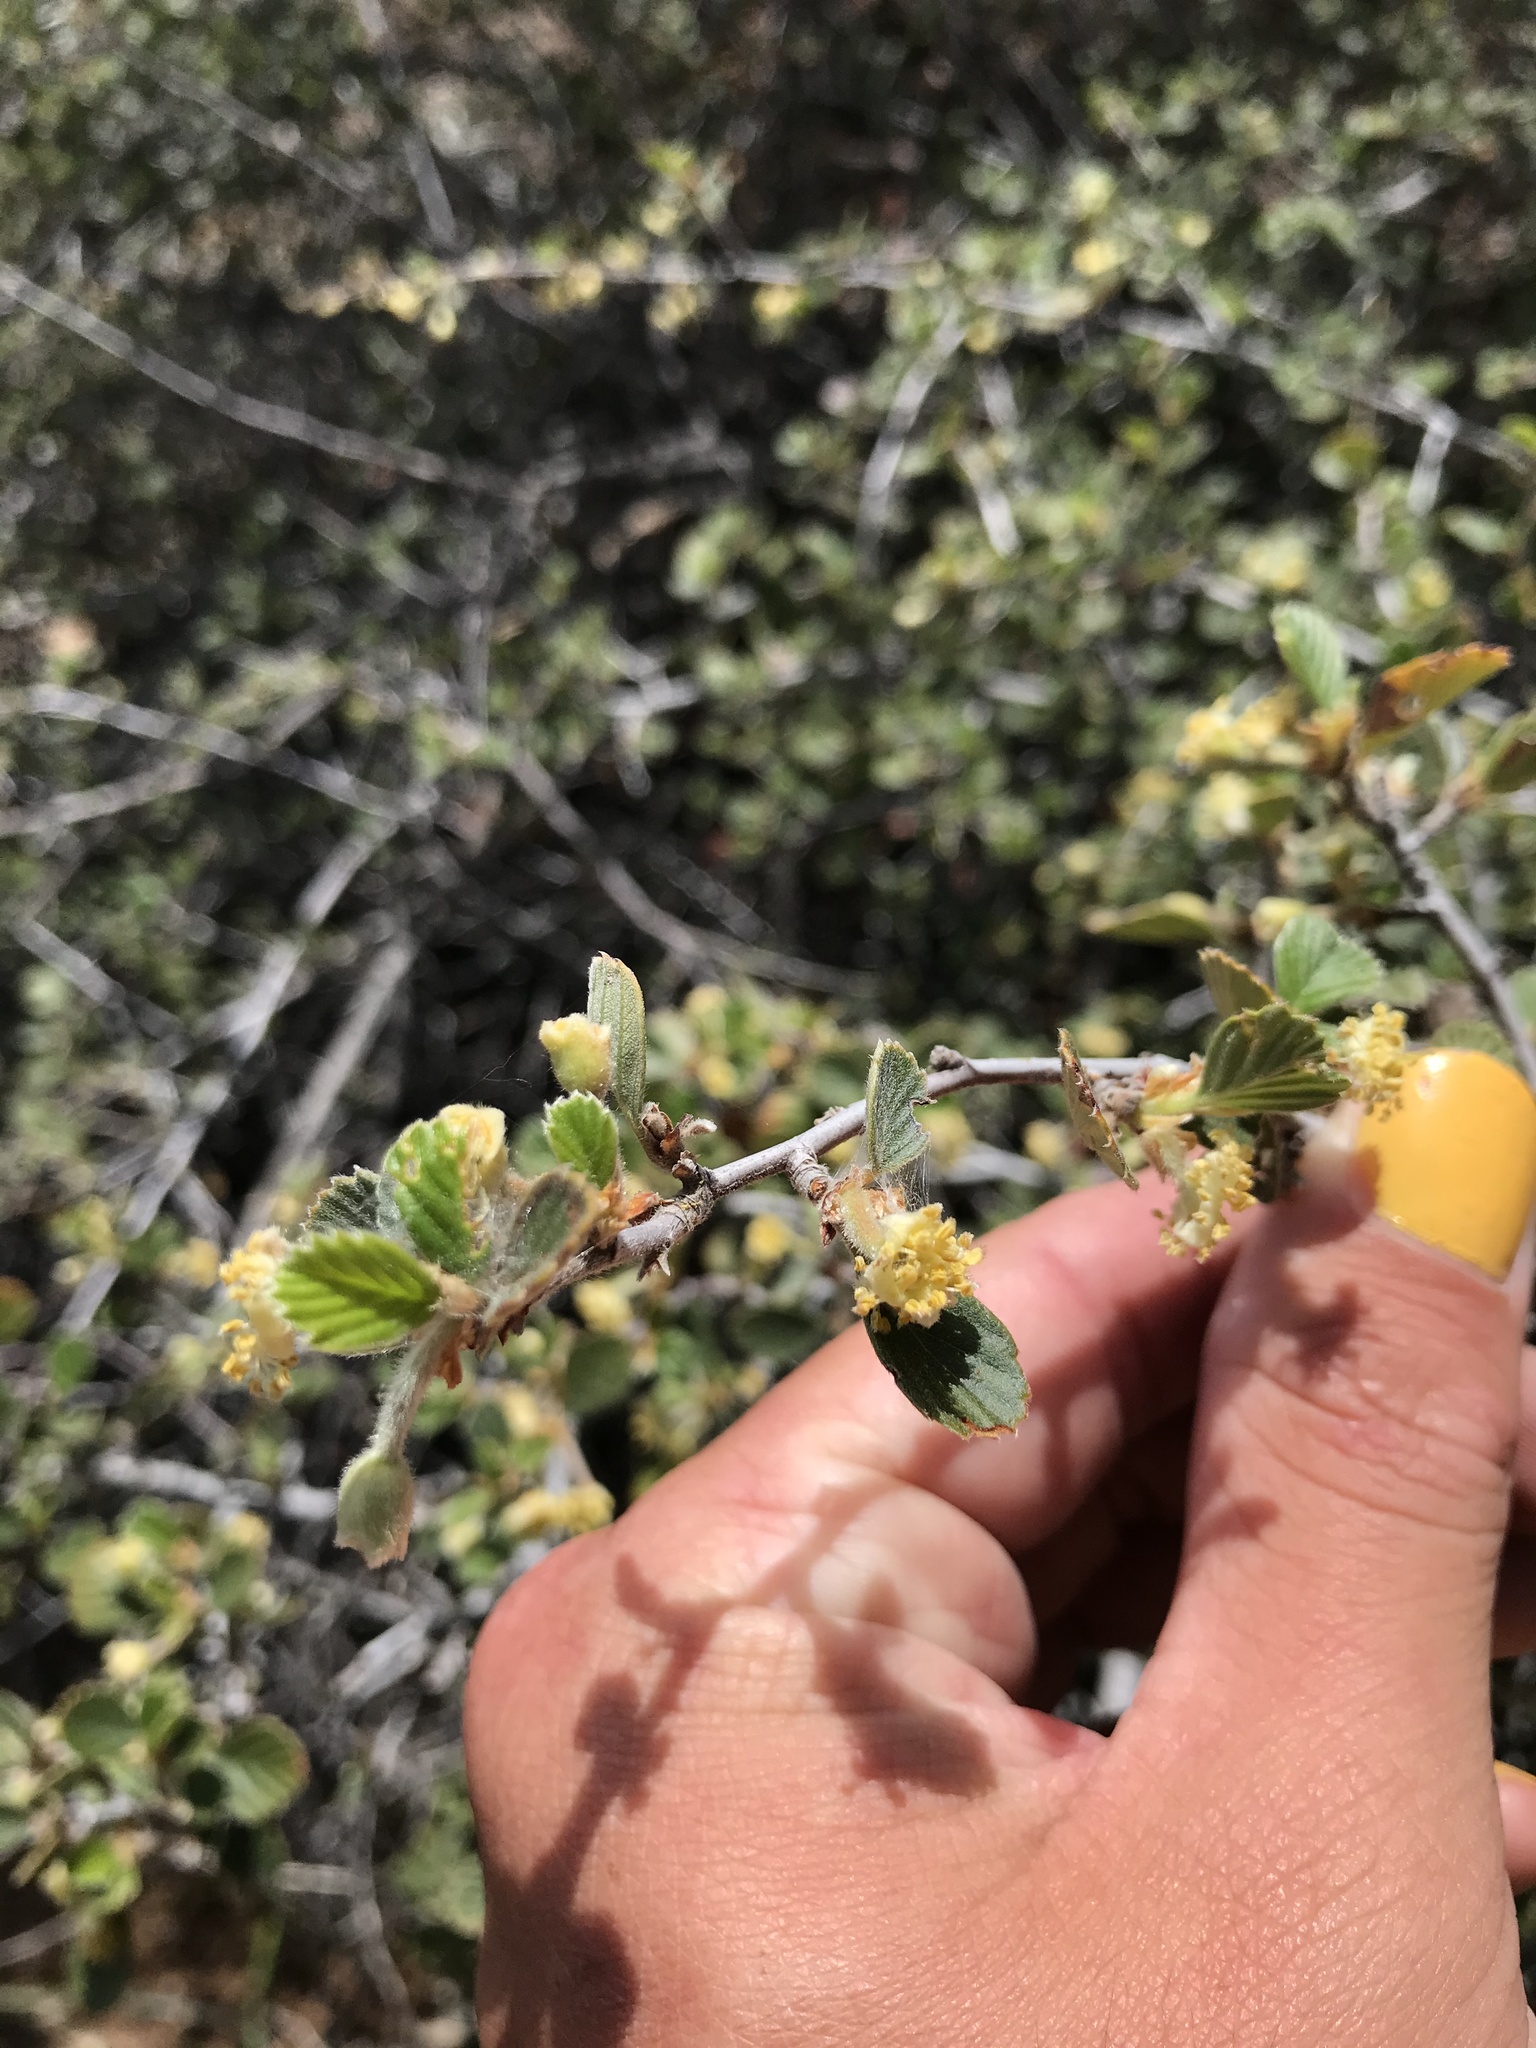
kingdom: Plantae
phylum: Tracheophyta
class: Magnoliopsida
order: Rosales
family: Rosaceae
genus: Cercocarpus
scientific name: Cercocarpus betuloides
